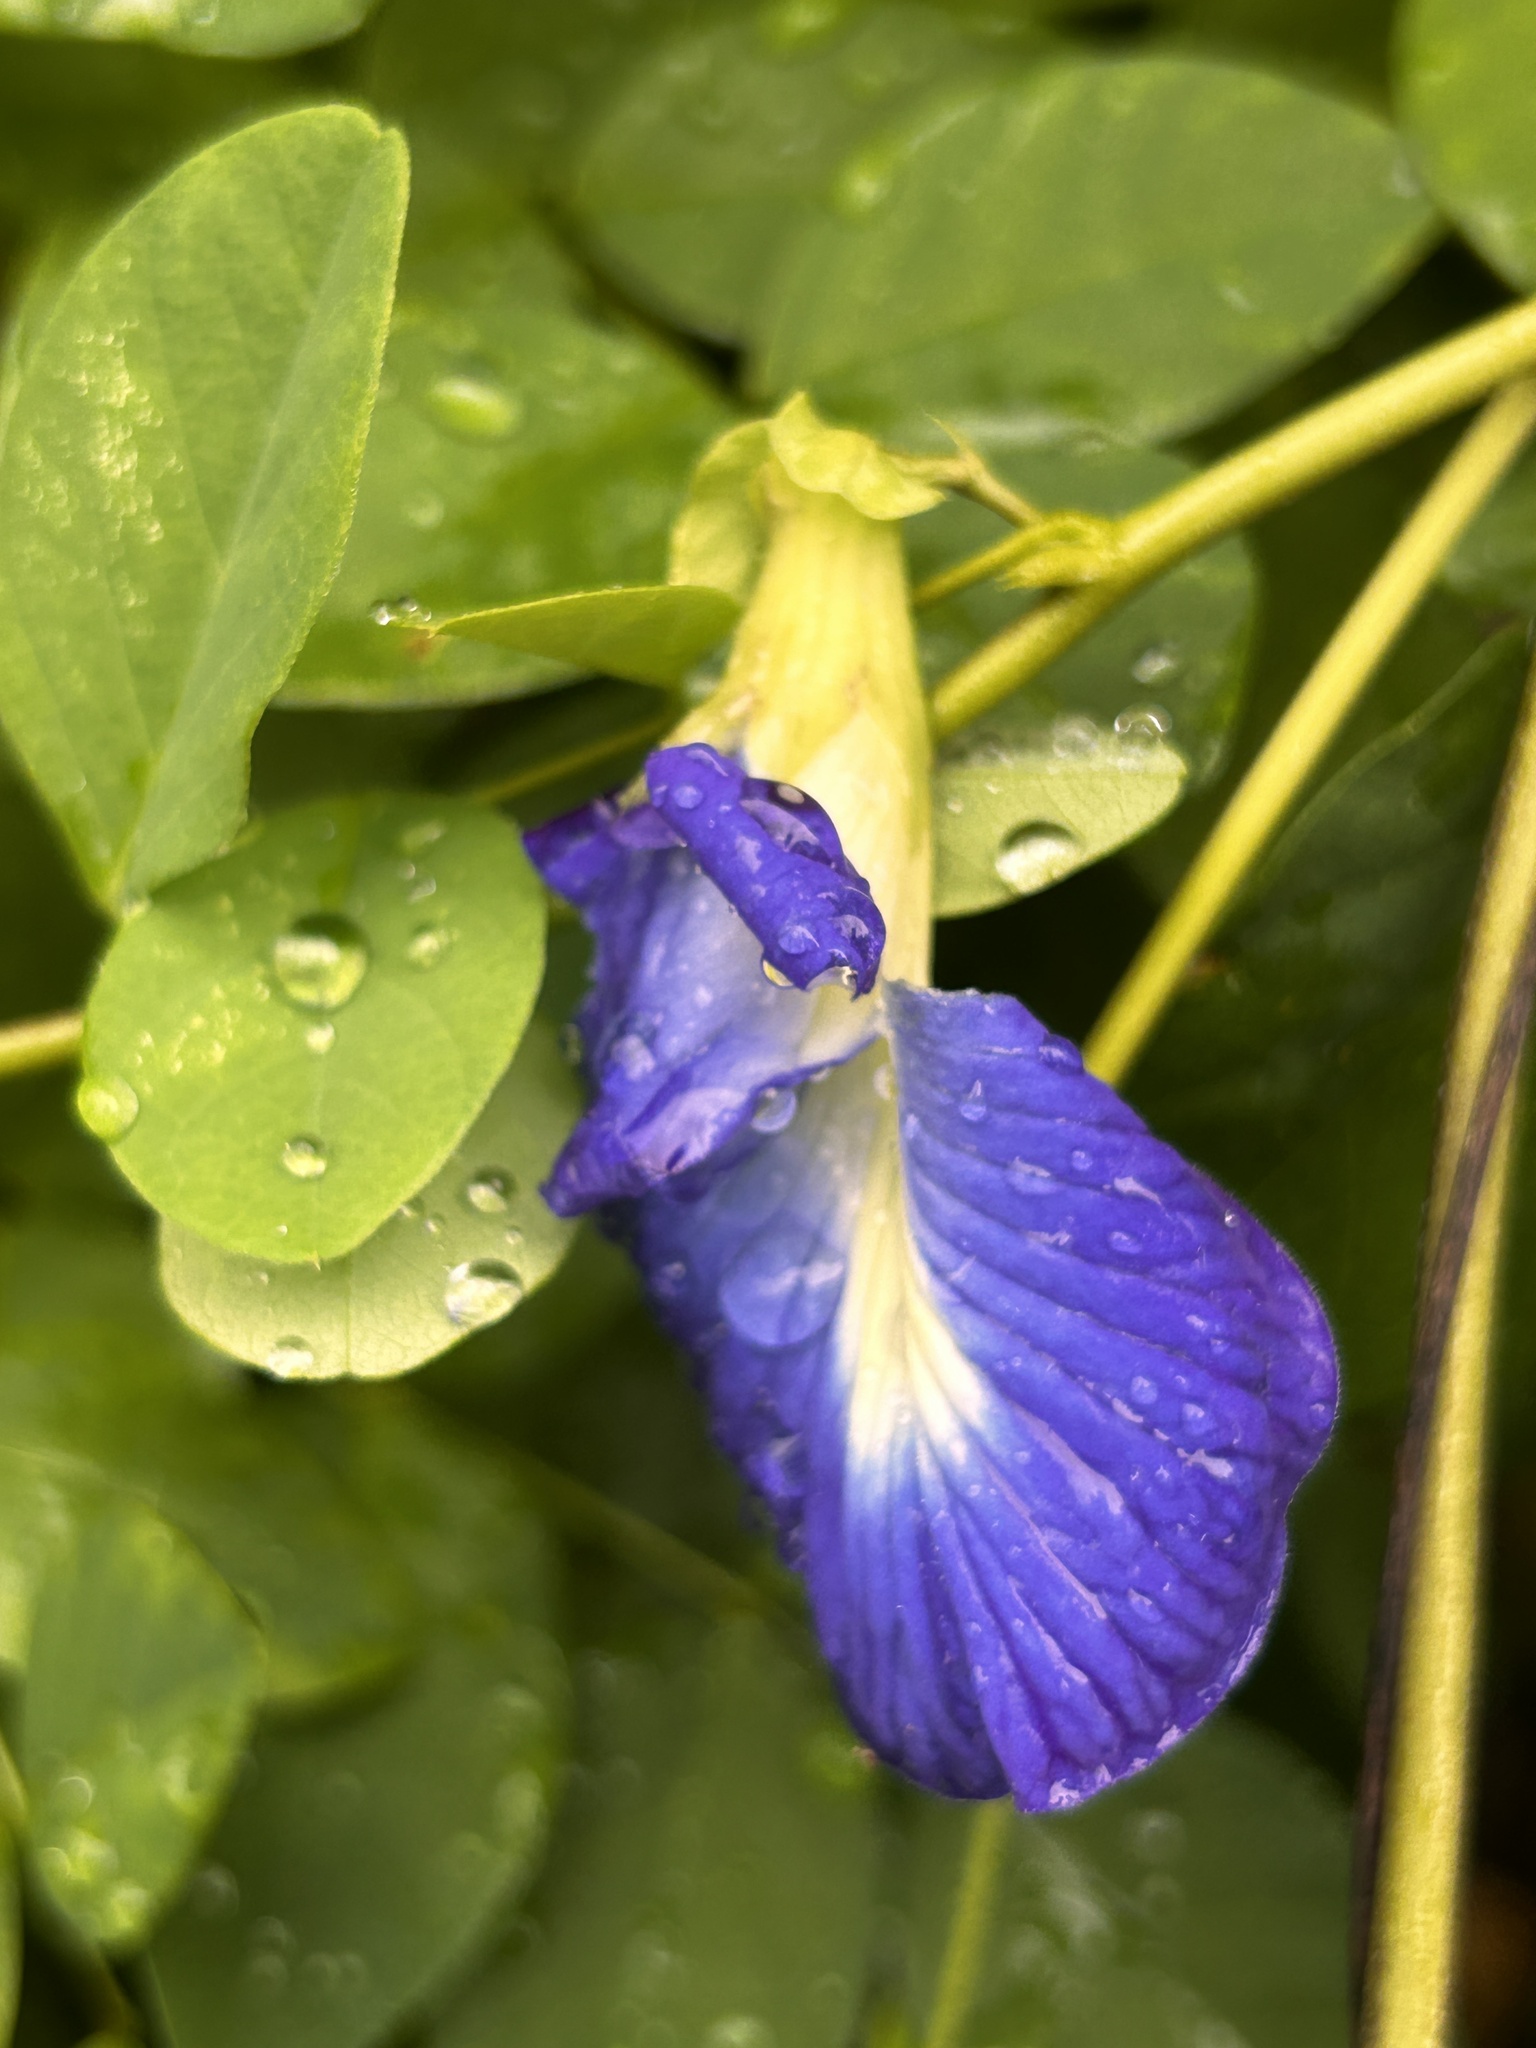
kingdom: Plantae
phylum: Tracheophyta
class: Magnoliopsida
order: Fabales
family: Fabaceae
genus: Clitoria
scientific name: Clitoria ternatea
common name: Asian pigeonwings
